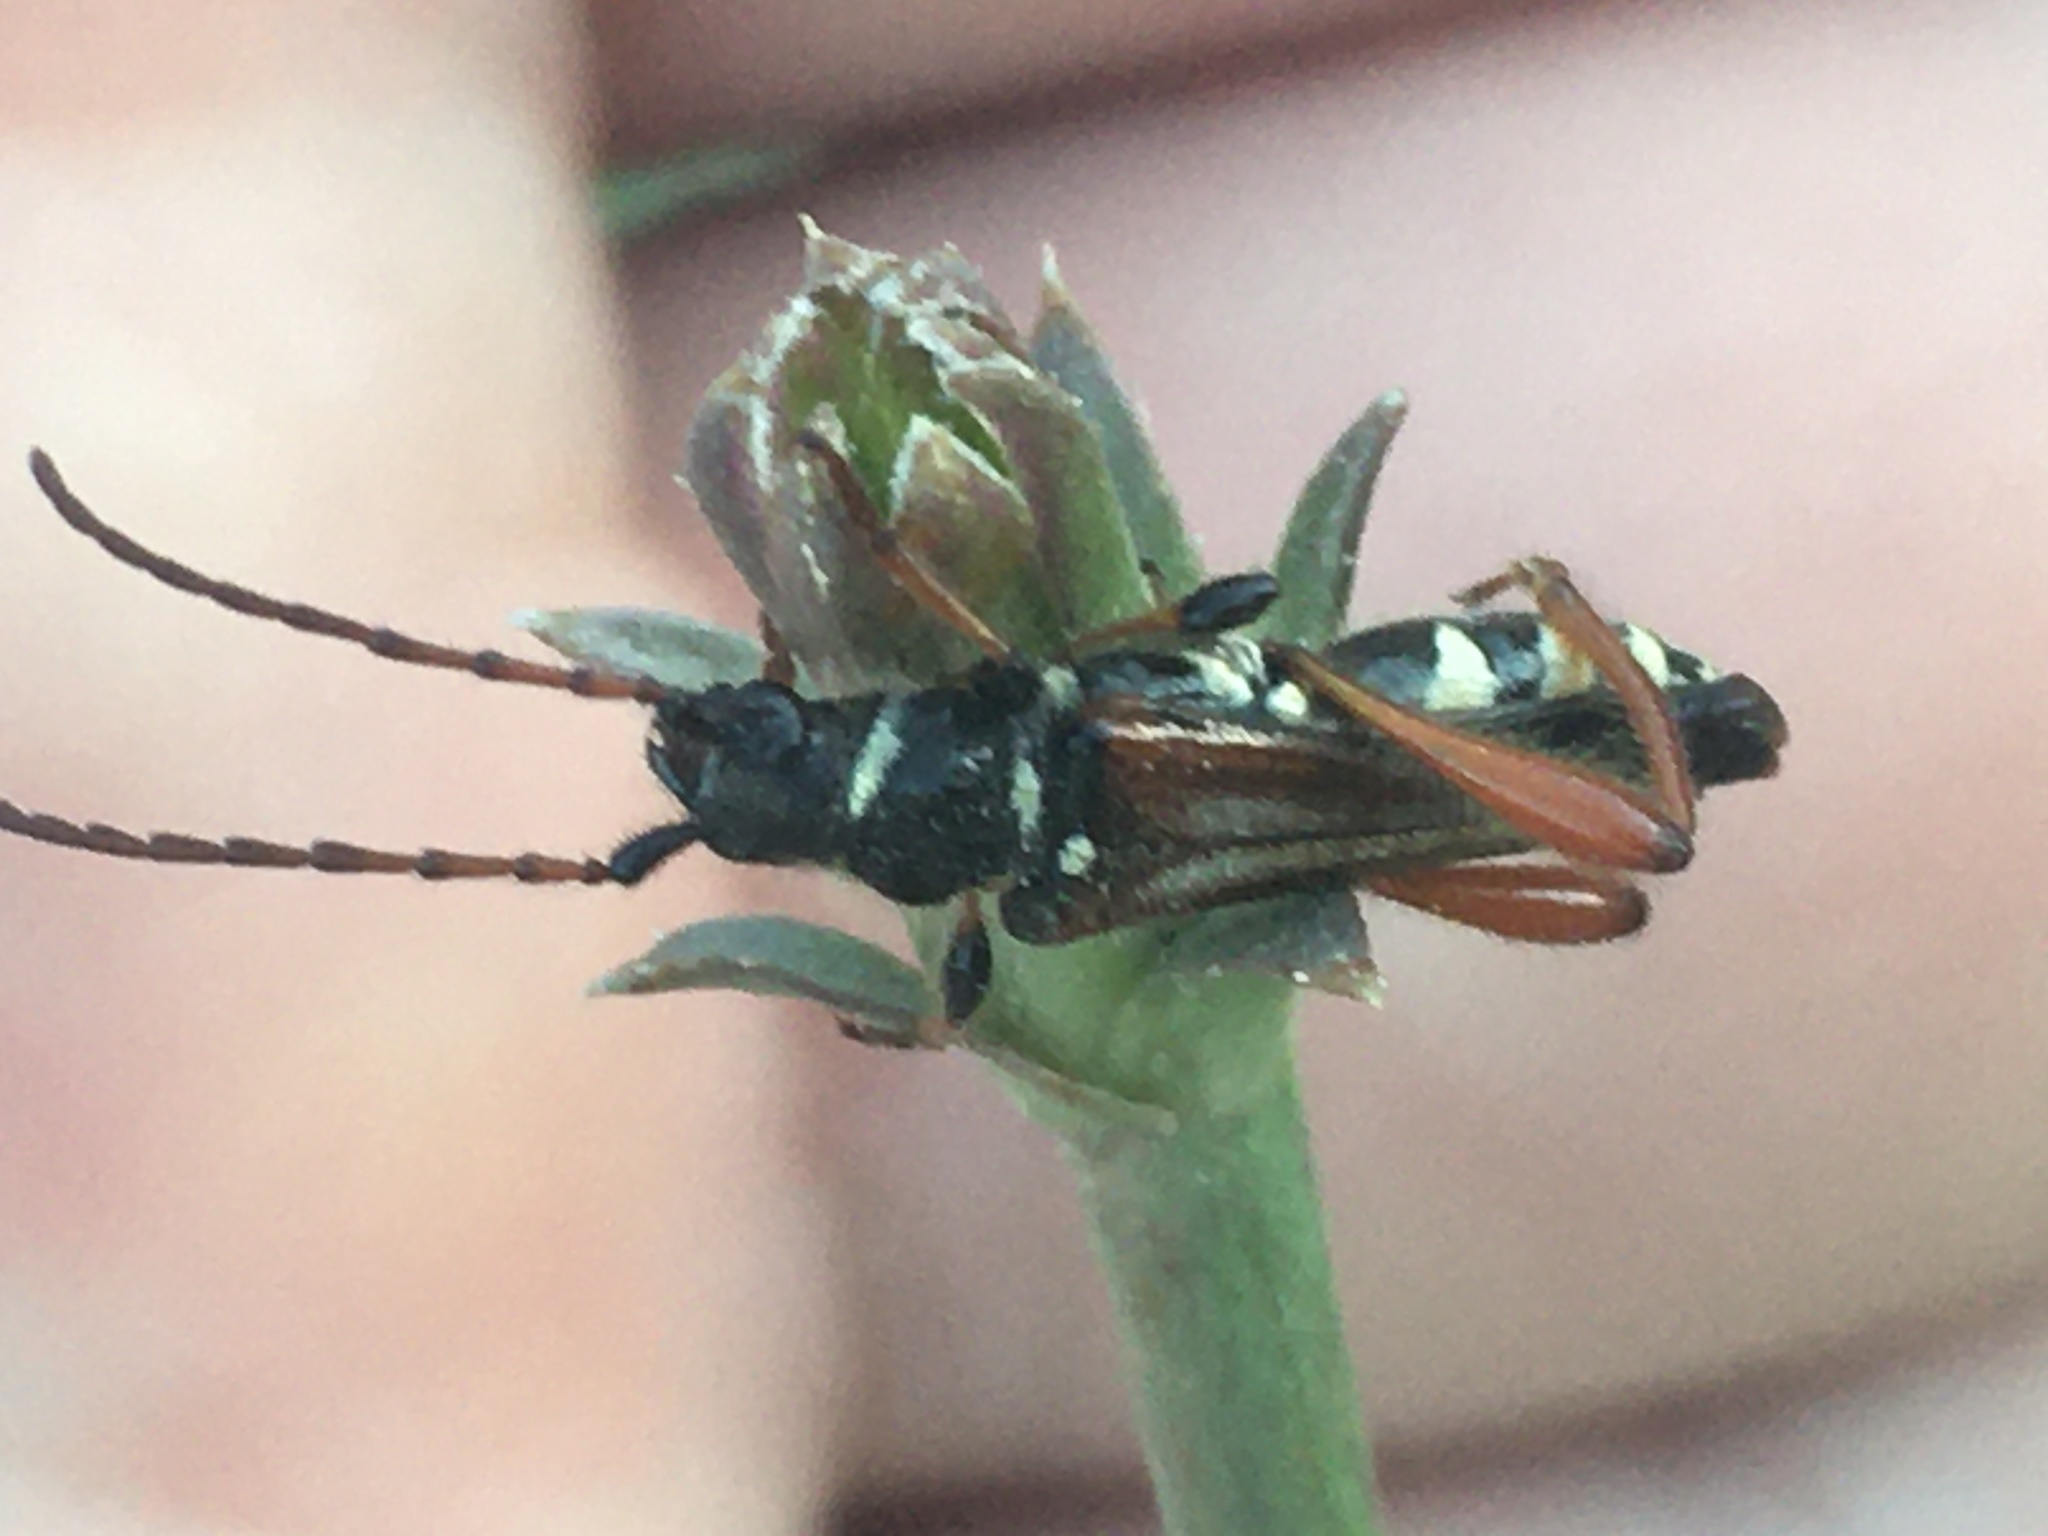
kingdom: Animalia
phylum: Arthropoda
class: Insecta
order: Coleoptera
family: Cerambycidae
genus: Stenopterus
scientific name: Stenopterus rufus
